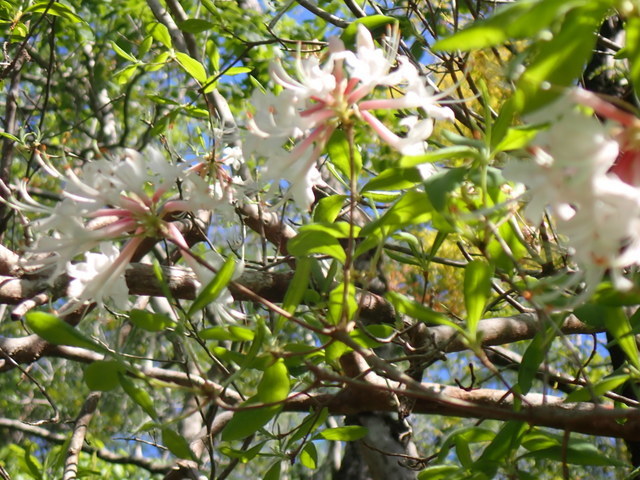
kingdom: Plantae
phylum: Tracheophyta
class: Magnoliopsida
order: Ericales
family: Ericaceae
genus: Rhododendron
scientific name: Rhododendron canescens
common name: Mountain azalea
